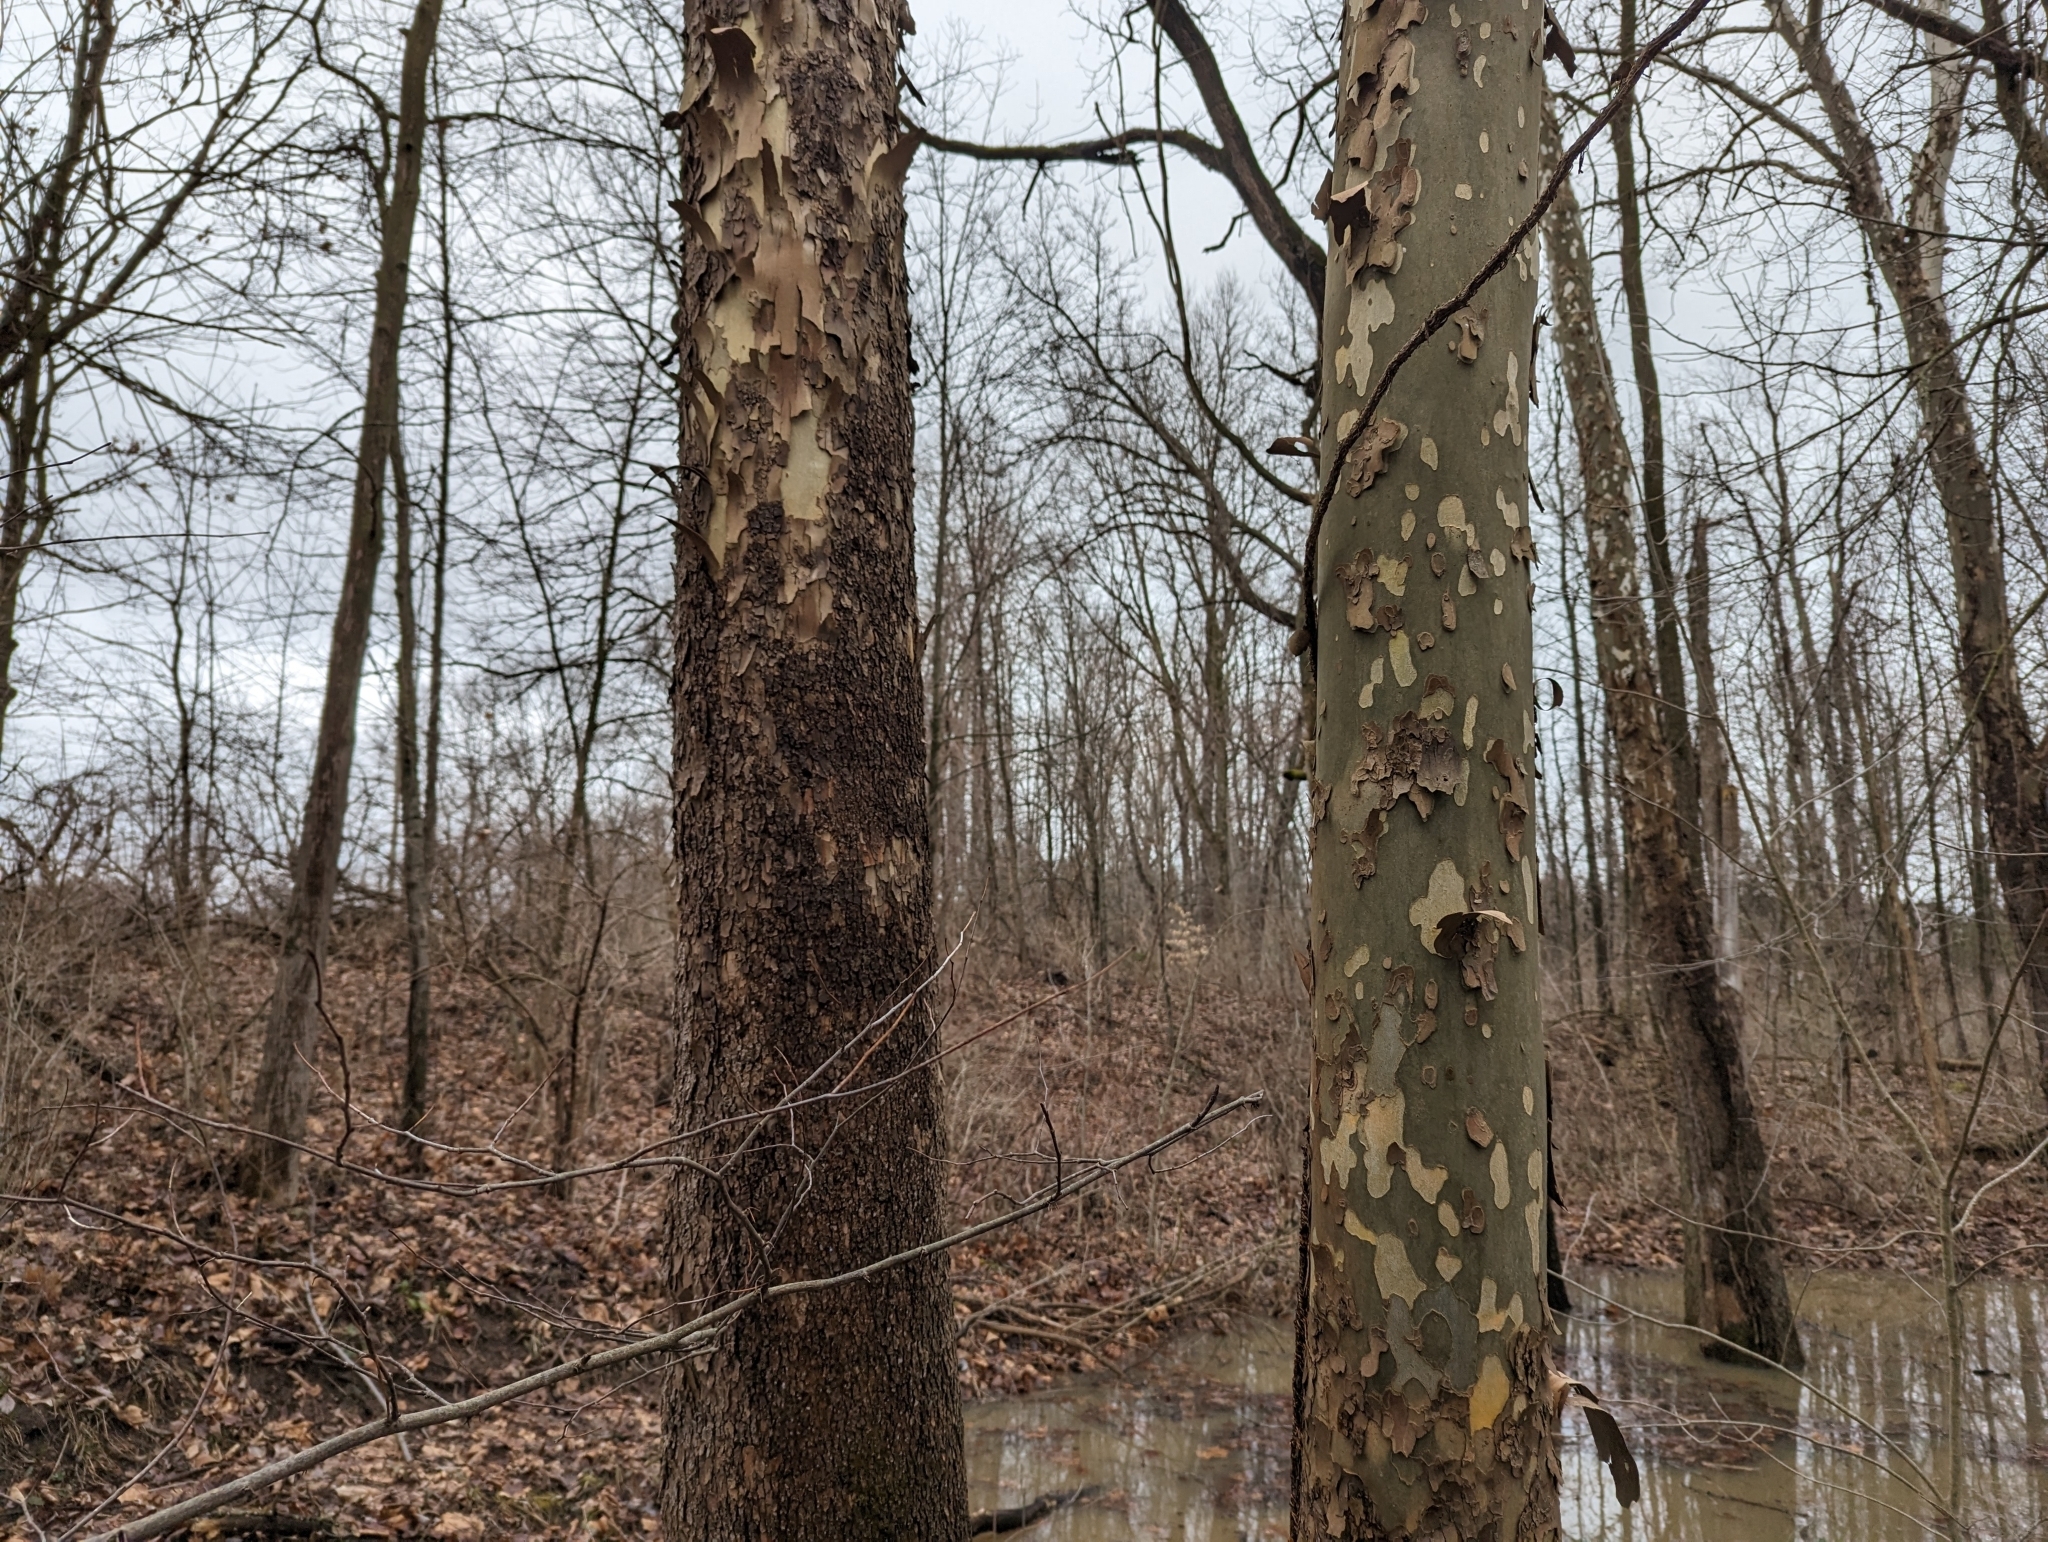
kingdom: Plantae
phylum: Tracheophyta
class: Magnoliopsida
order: Proteales
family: Platanaceae
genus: Platanus
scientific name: Platanus occidentalis
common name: American sycamore
